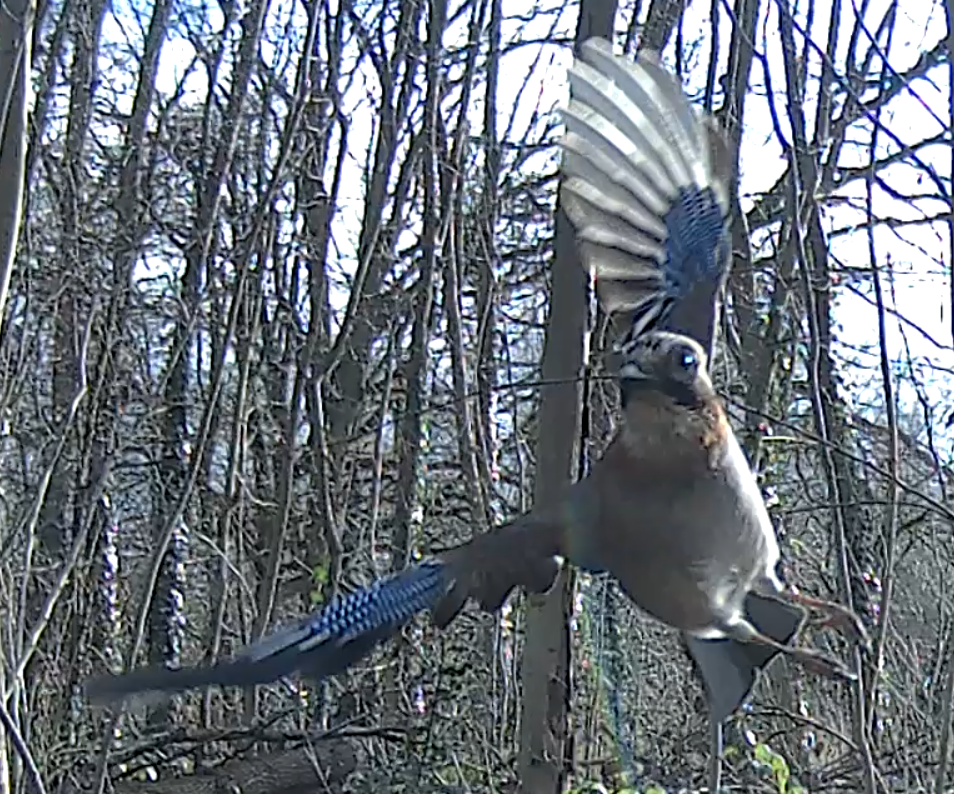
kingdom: Animalia
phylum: Chordata
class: Aves
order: Passeriformes
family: Corvidae
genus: Garrulus
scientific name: Garrulus glandarius
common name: Eurasian jay
